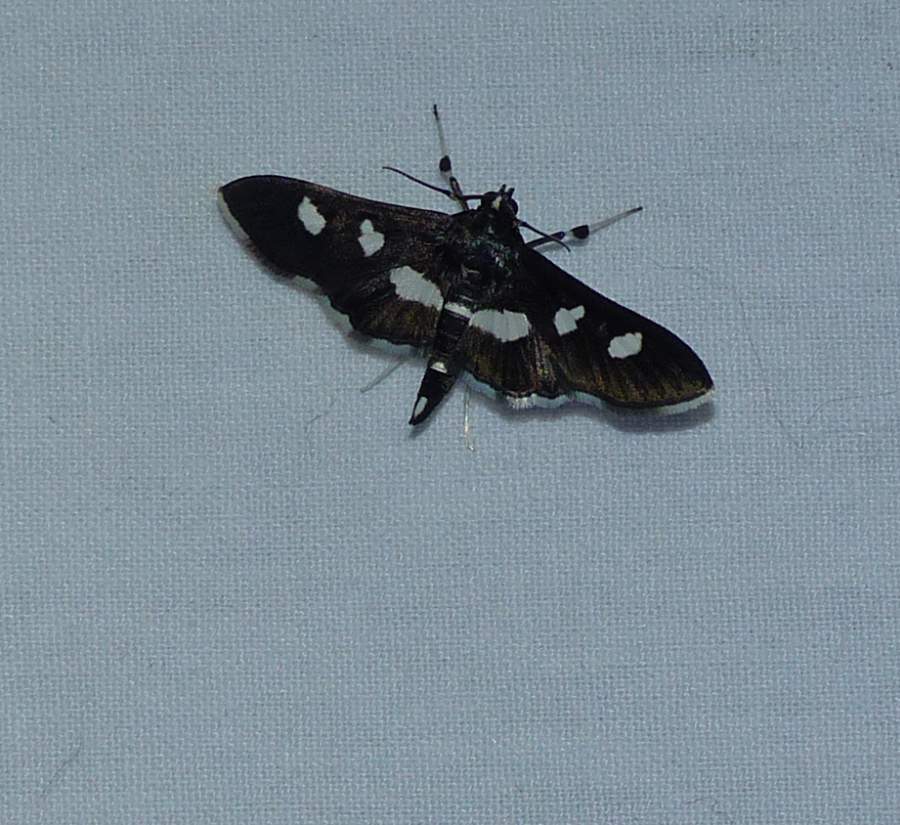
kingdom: Animalia
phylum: Arthropoda
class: Insecta
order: Lepidoptera
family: Crambidae
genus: Desmia
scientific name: Desmia
